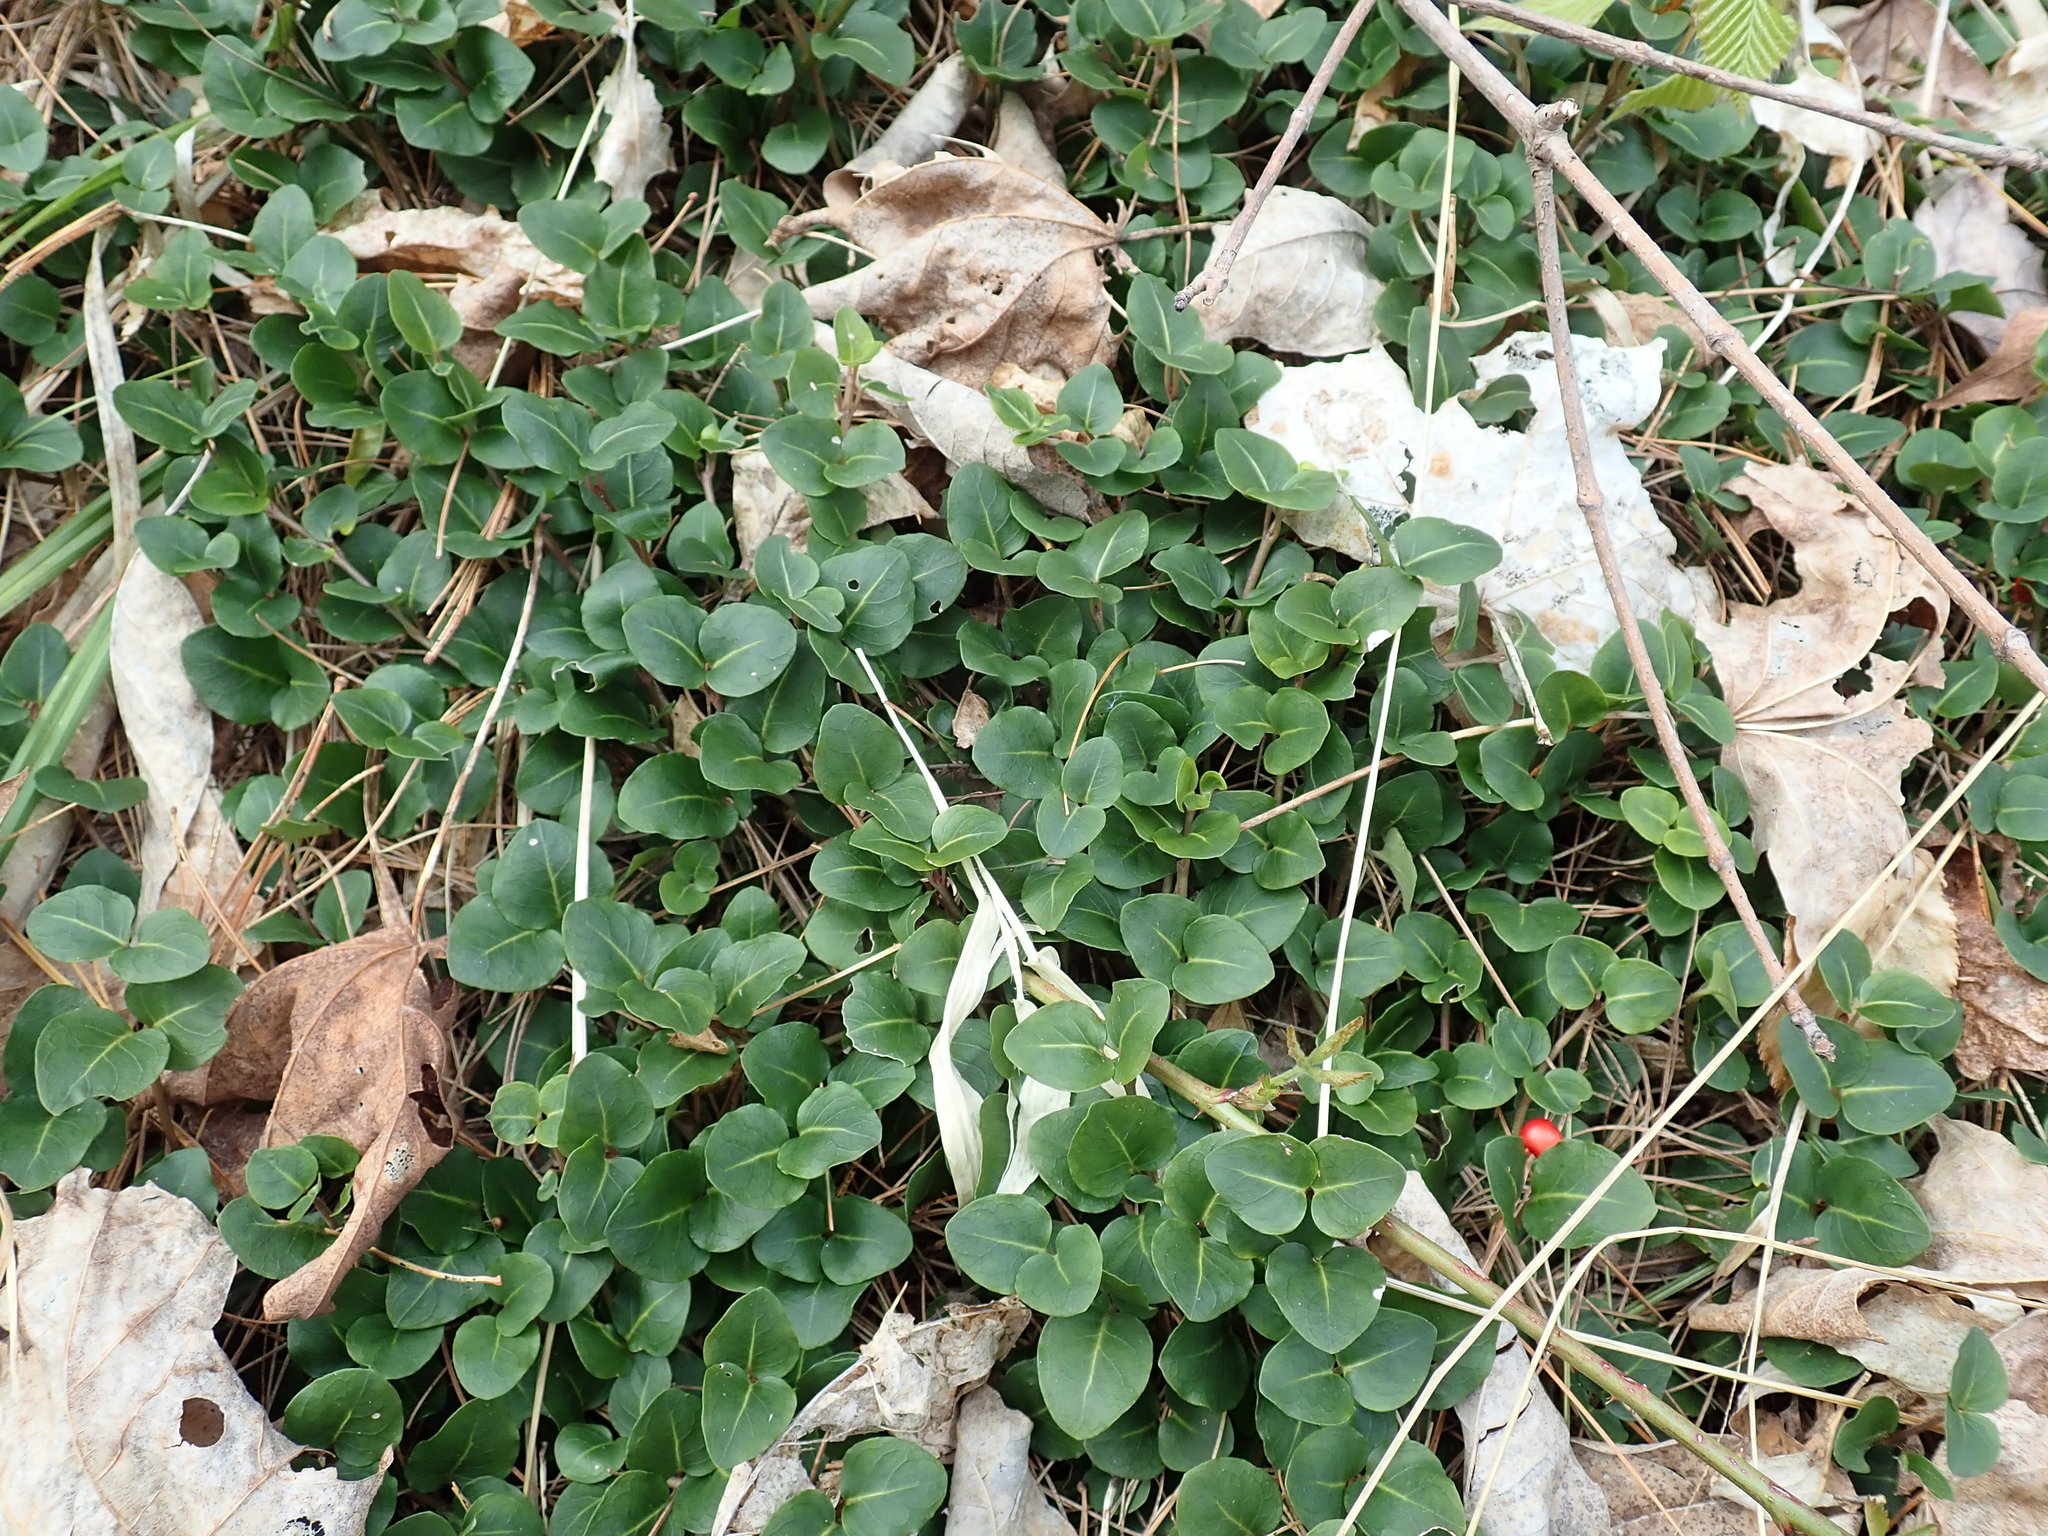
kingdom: Plantae
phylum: Tracheophyta
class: Magnoliopsida
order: Gentianales
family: Rubiaceae
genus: Mitchella
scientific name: Mitchella repens
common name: Partridge-berry
